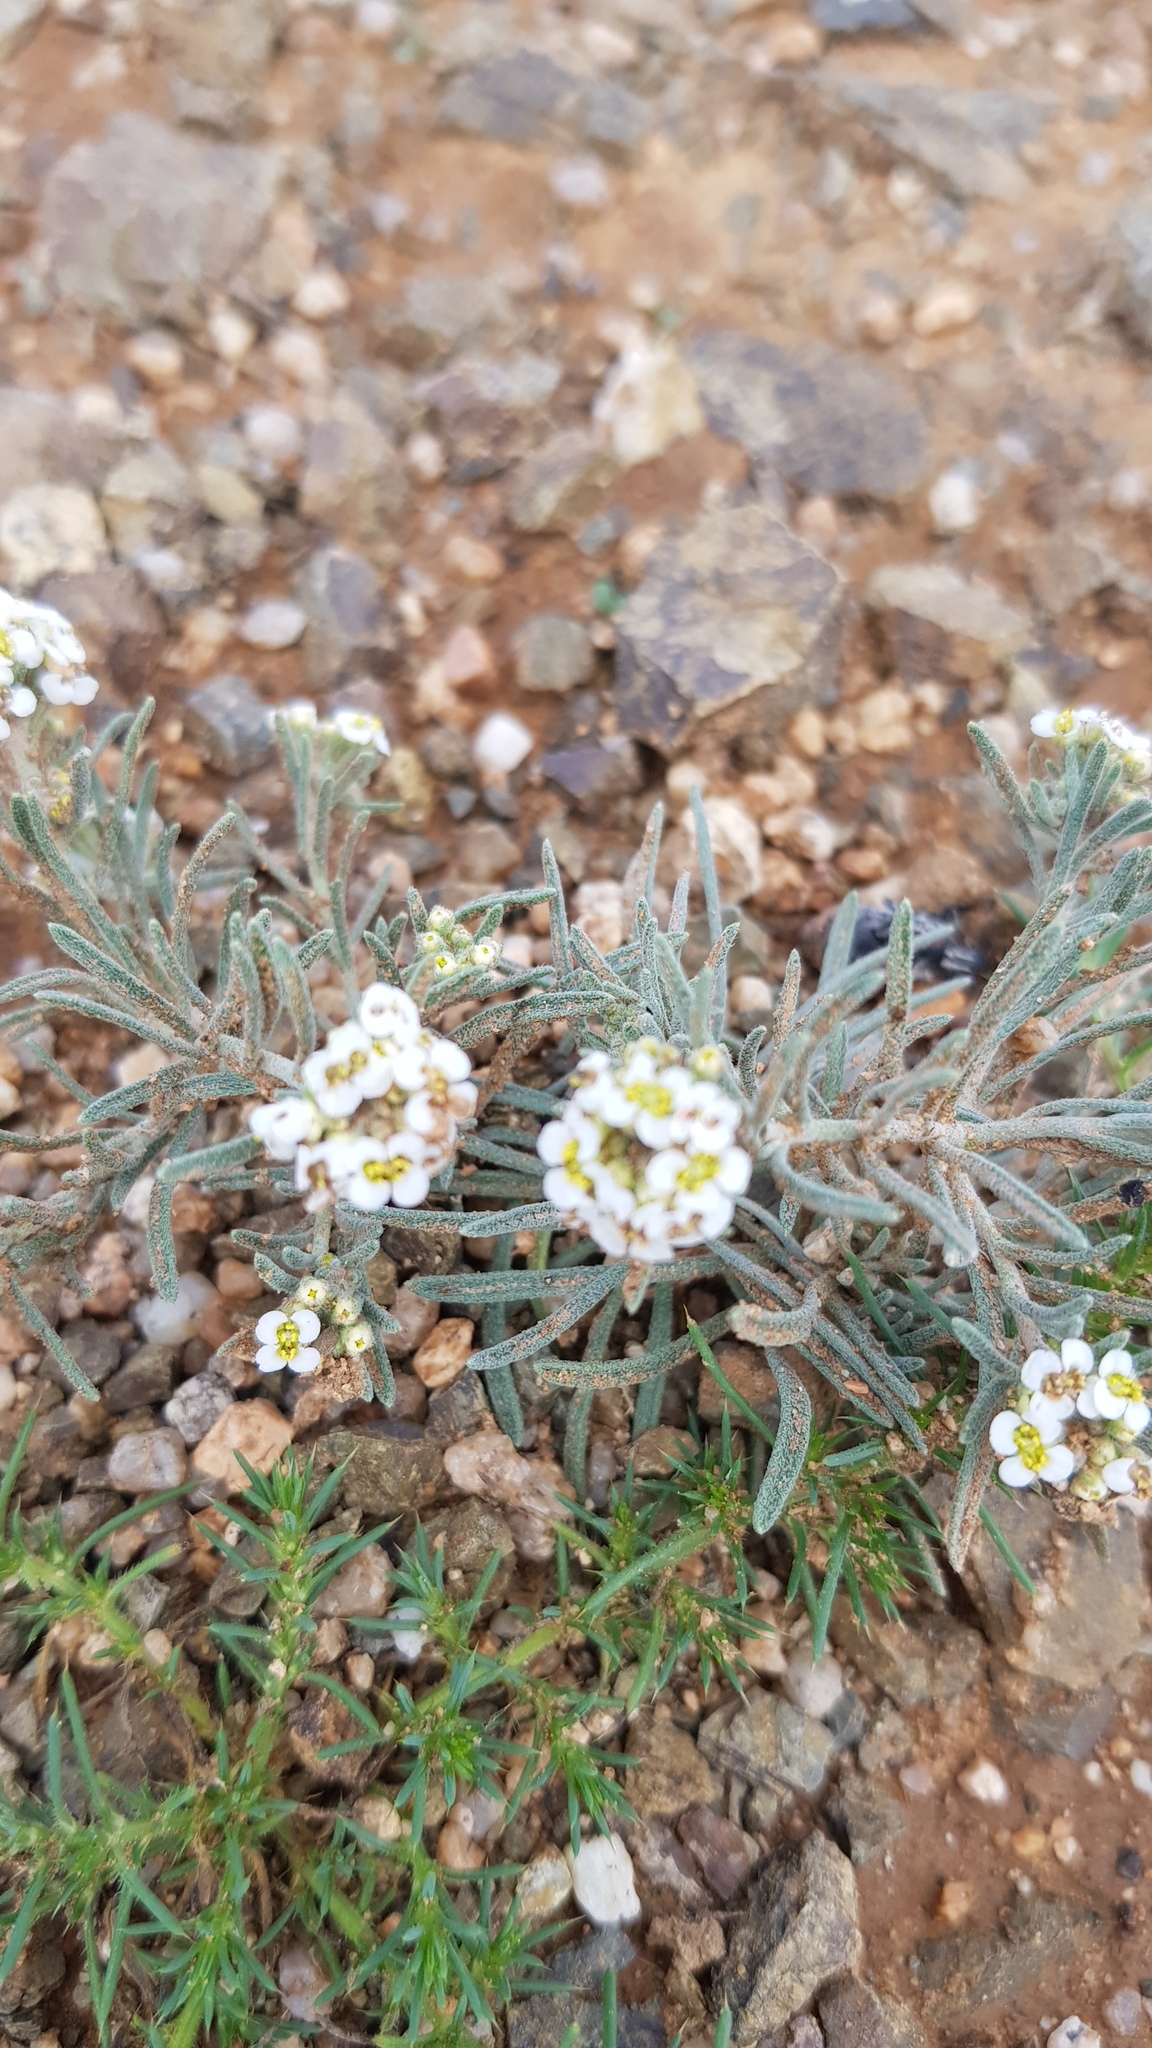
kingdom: Plantae
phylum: Tracheophyta
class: Magnoliopsida
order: Brassicales
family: Brassicaceae
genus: Stevenia
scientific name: Stevenia tenuifolia
